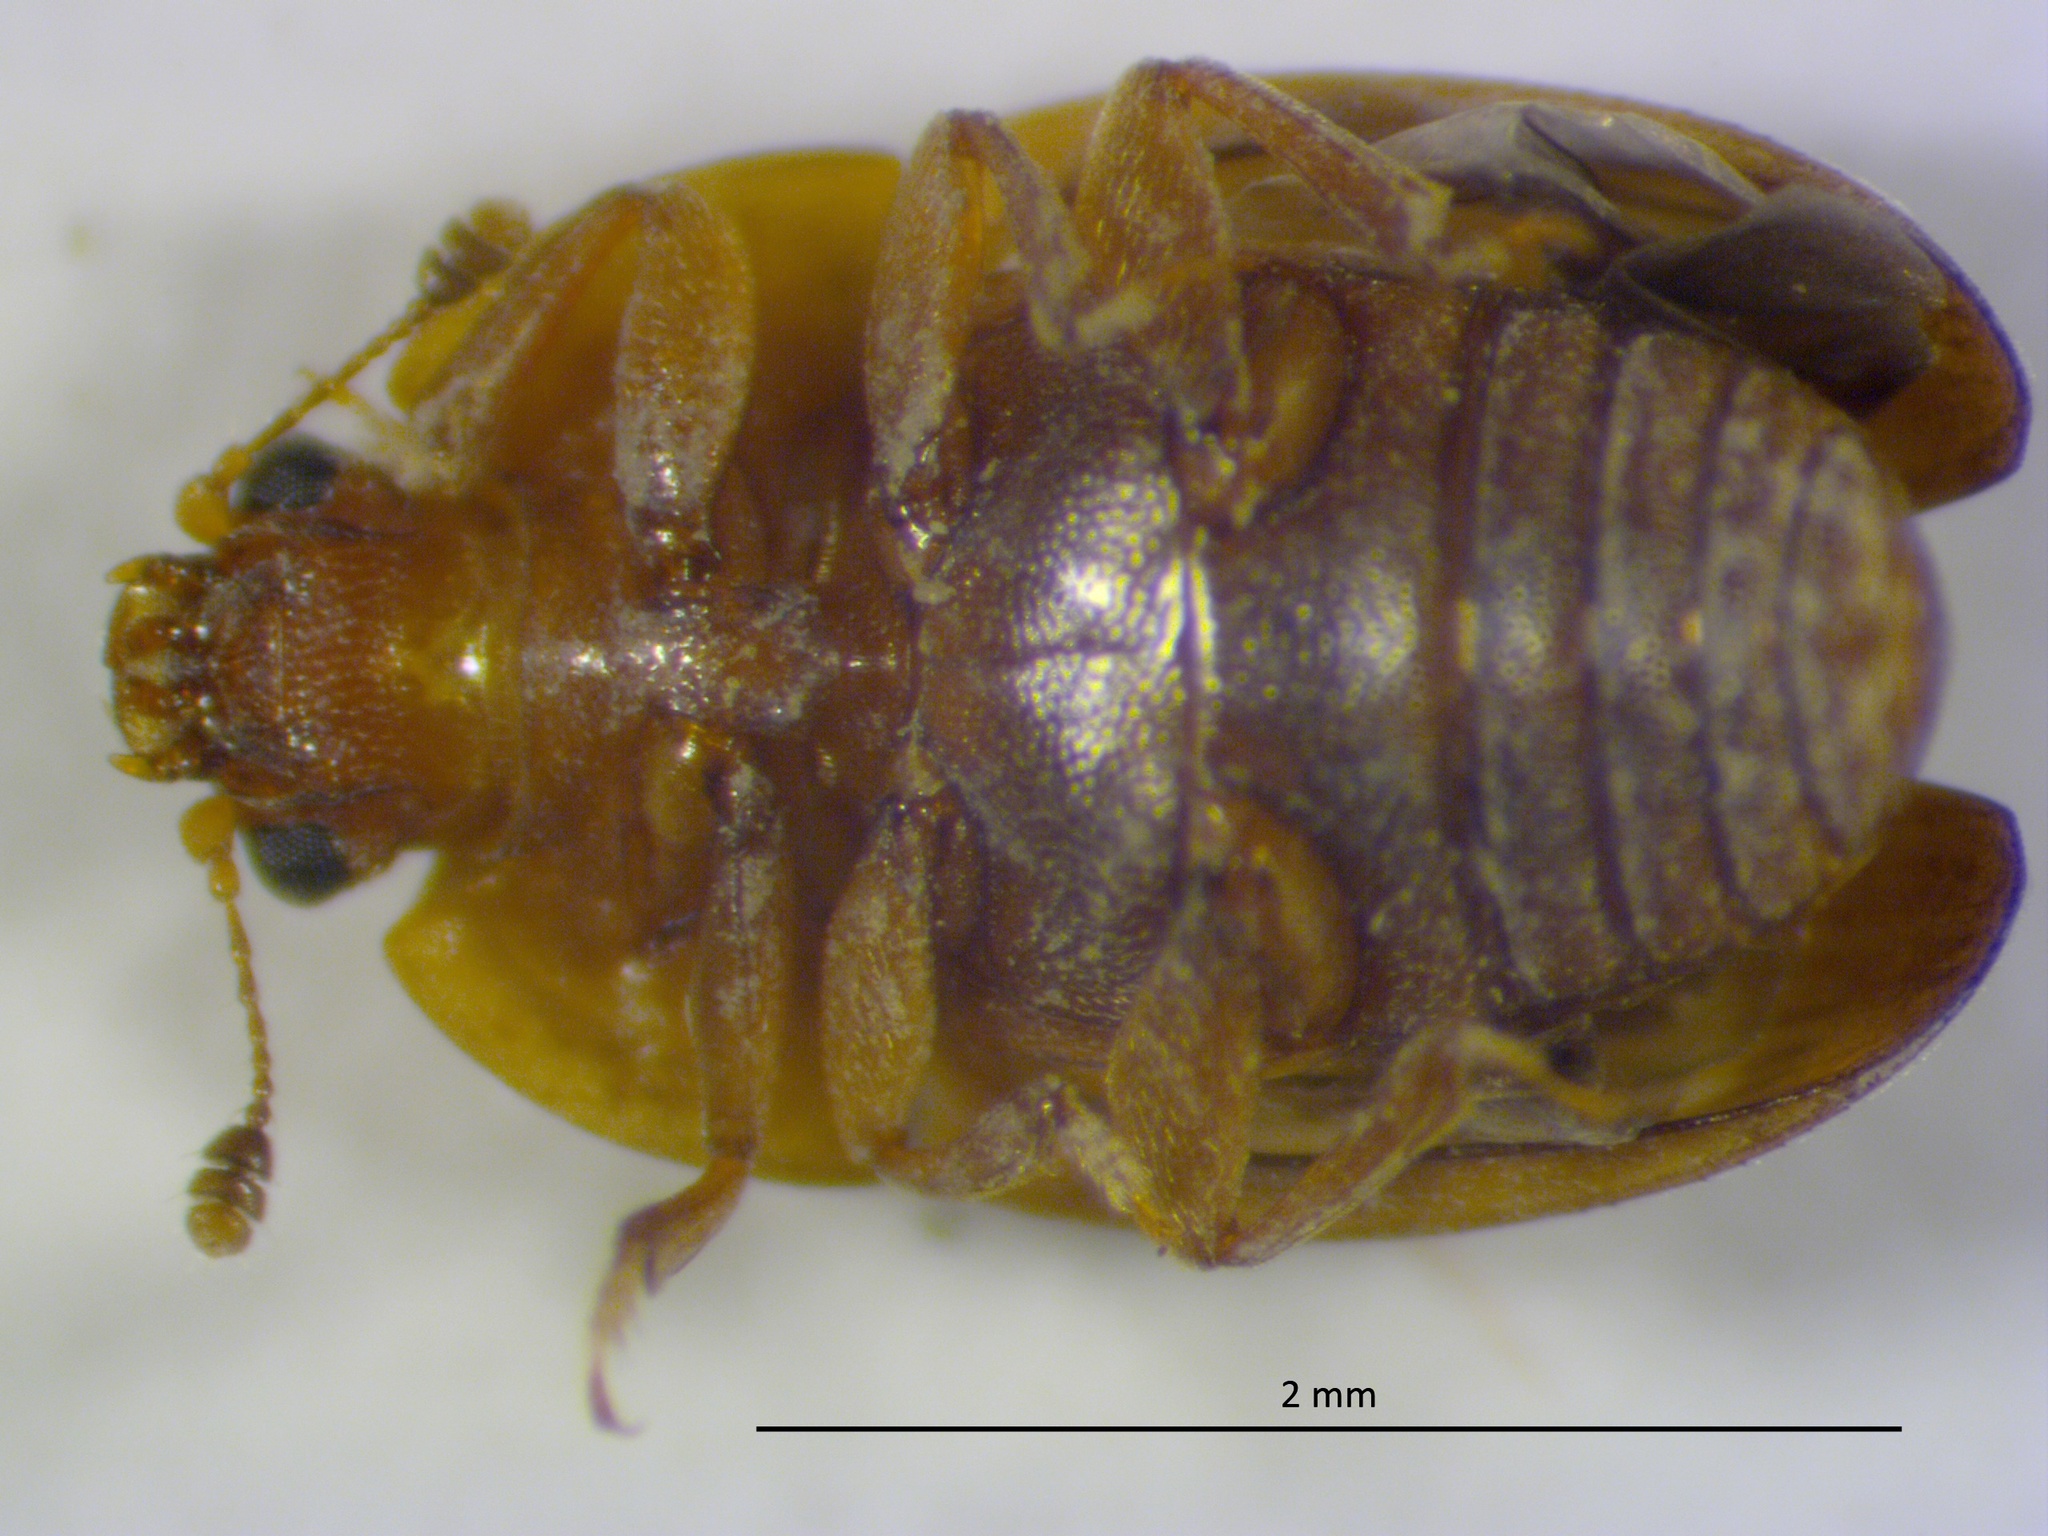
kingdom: Animalia
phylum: Arthropoda
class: Insecta
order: Coleoptera
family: Nitidulidae
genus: Stelidota
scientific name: Stelidota geminata
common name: Strawberry sap beetle
